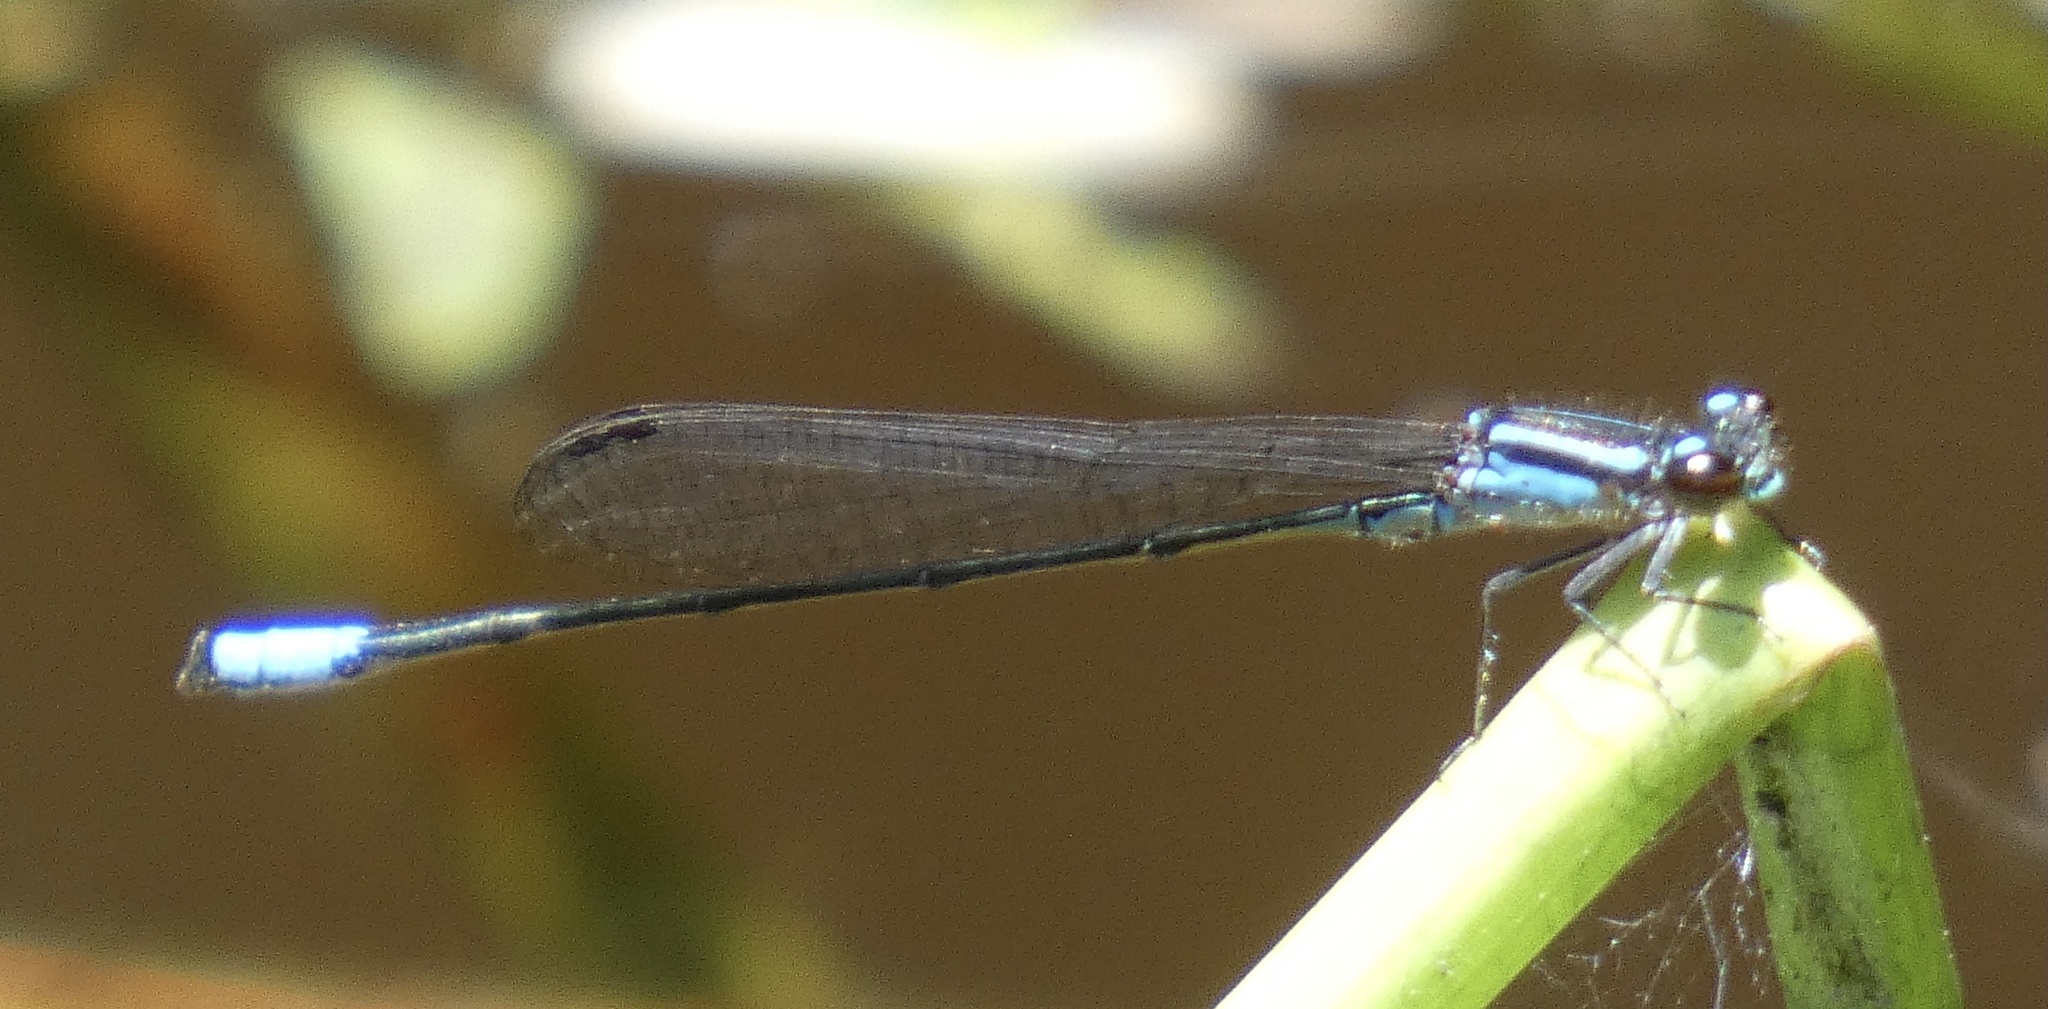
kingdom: Animalia
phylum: Arthropoda
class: Insecta
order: Odonata
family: Coenagrionidae
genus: Acanthagrion
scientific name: Acanthagrion gracile
